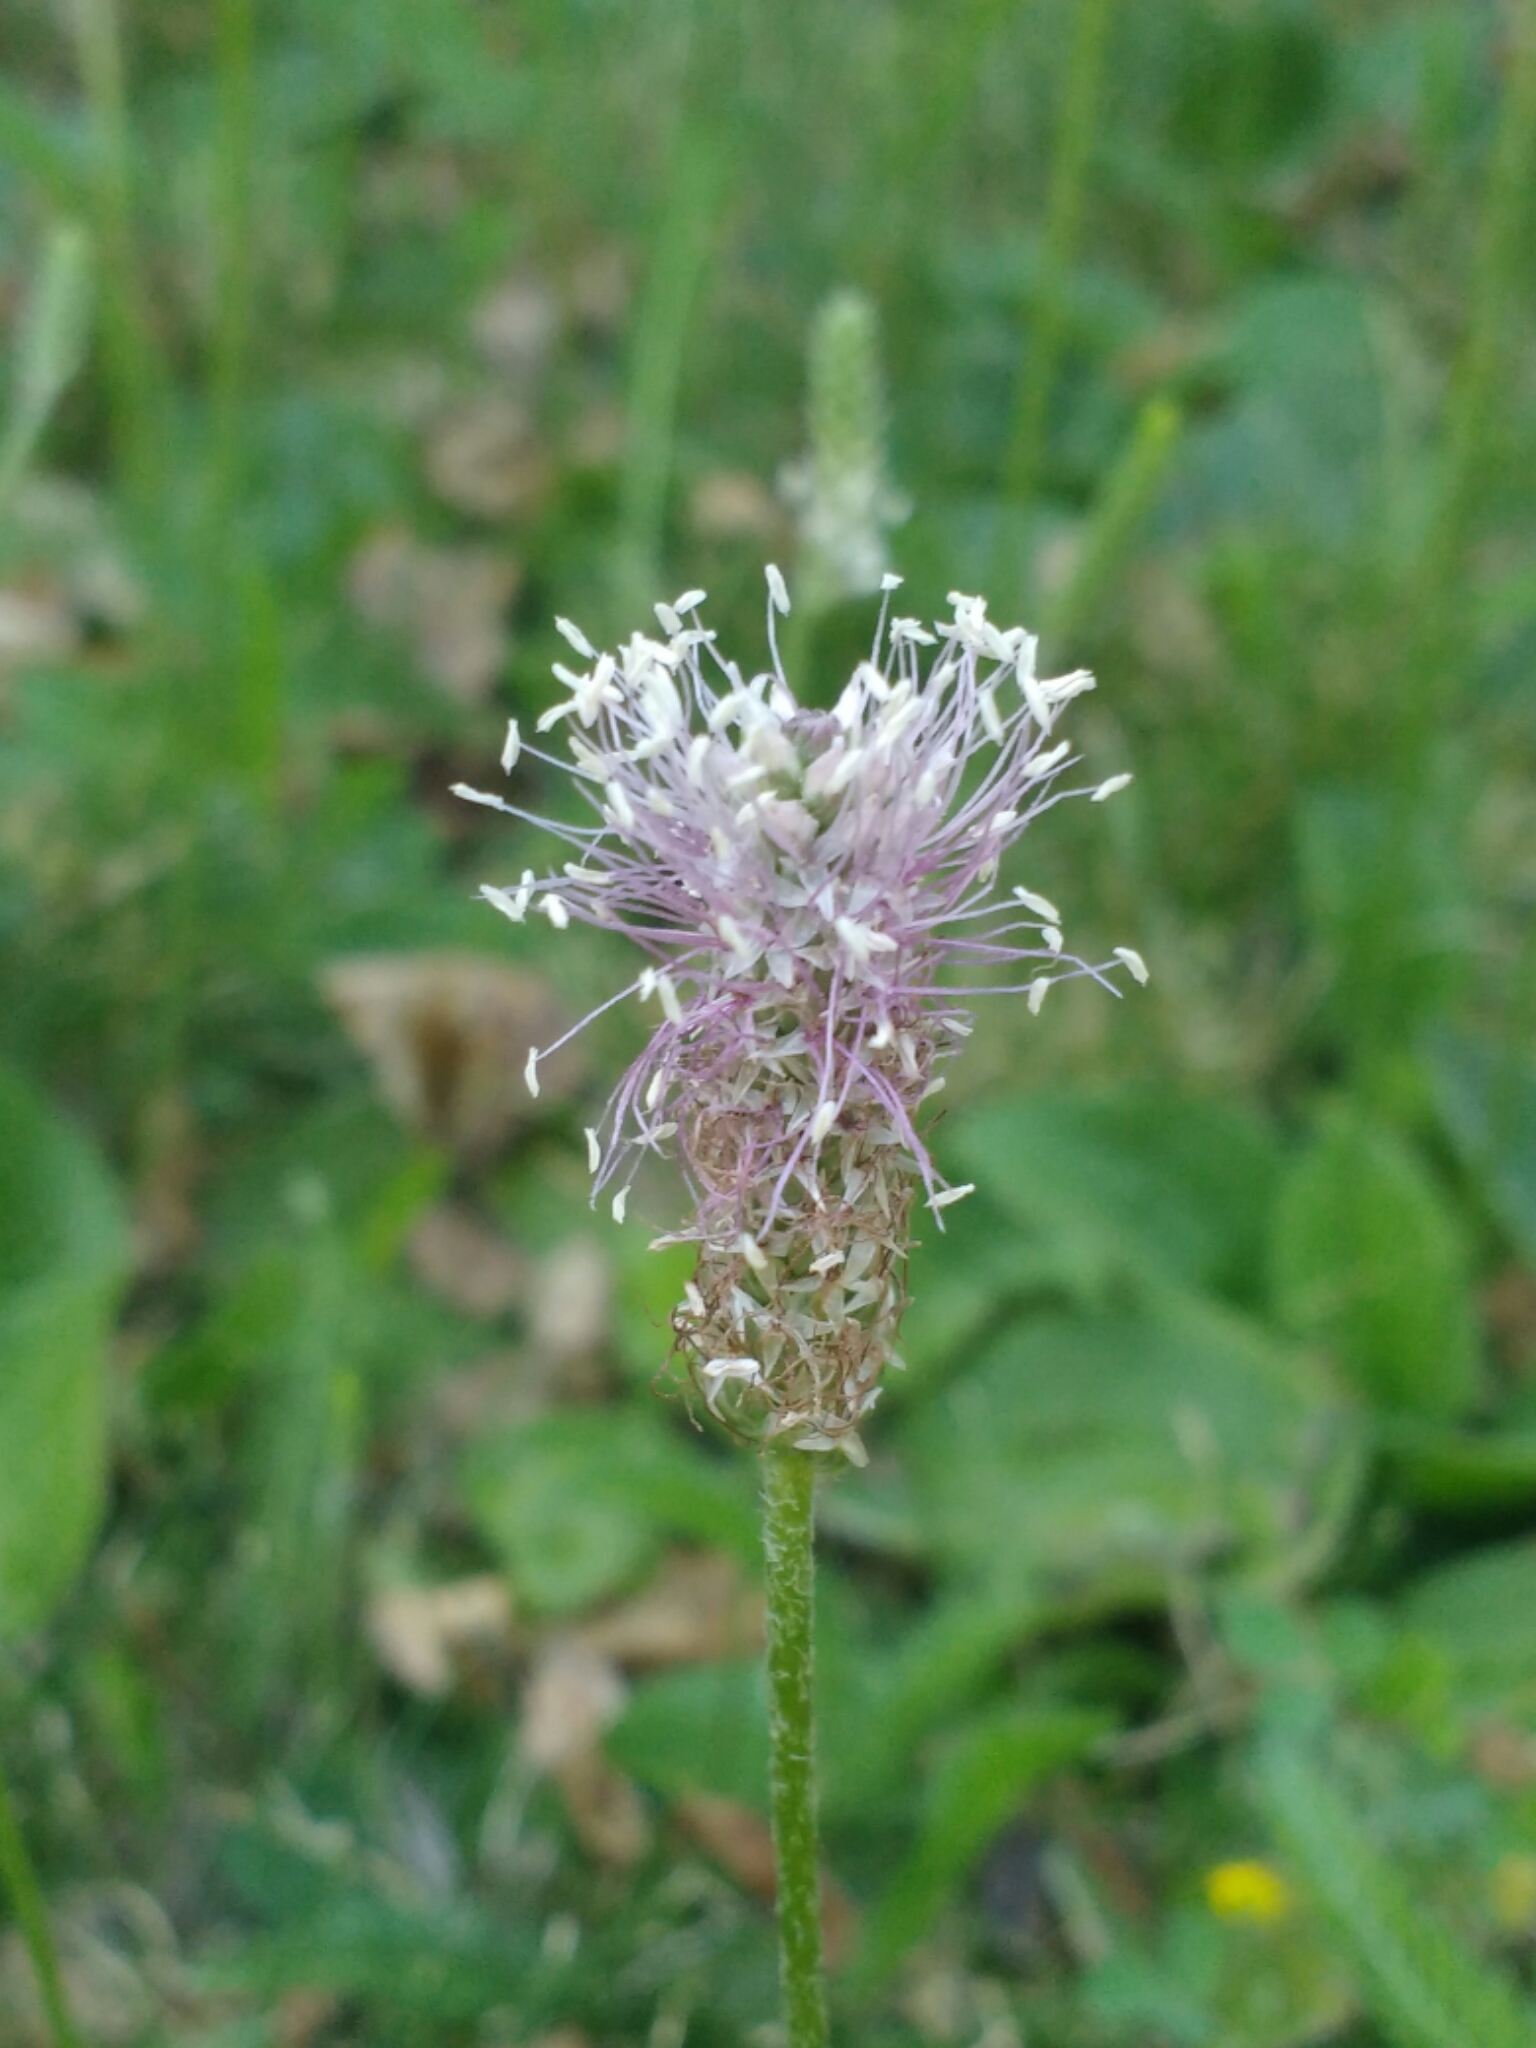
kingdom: Plantae
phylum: Tracheophyta
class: Magnoliopsida
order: Lamiales
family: Plantaginaceae
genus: Plantago
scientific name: Plantago media
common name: Hoary plantain
